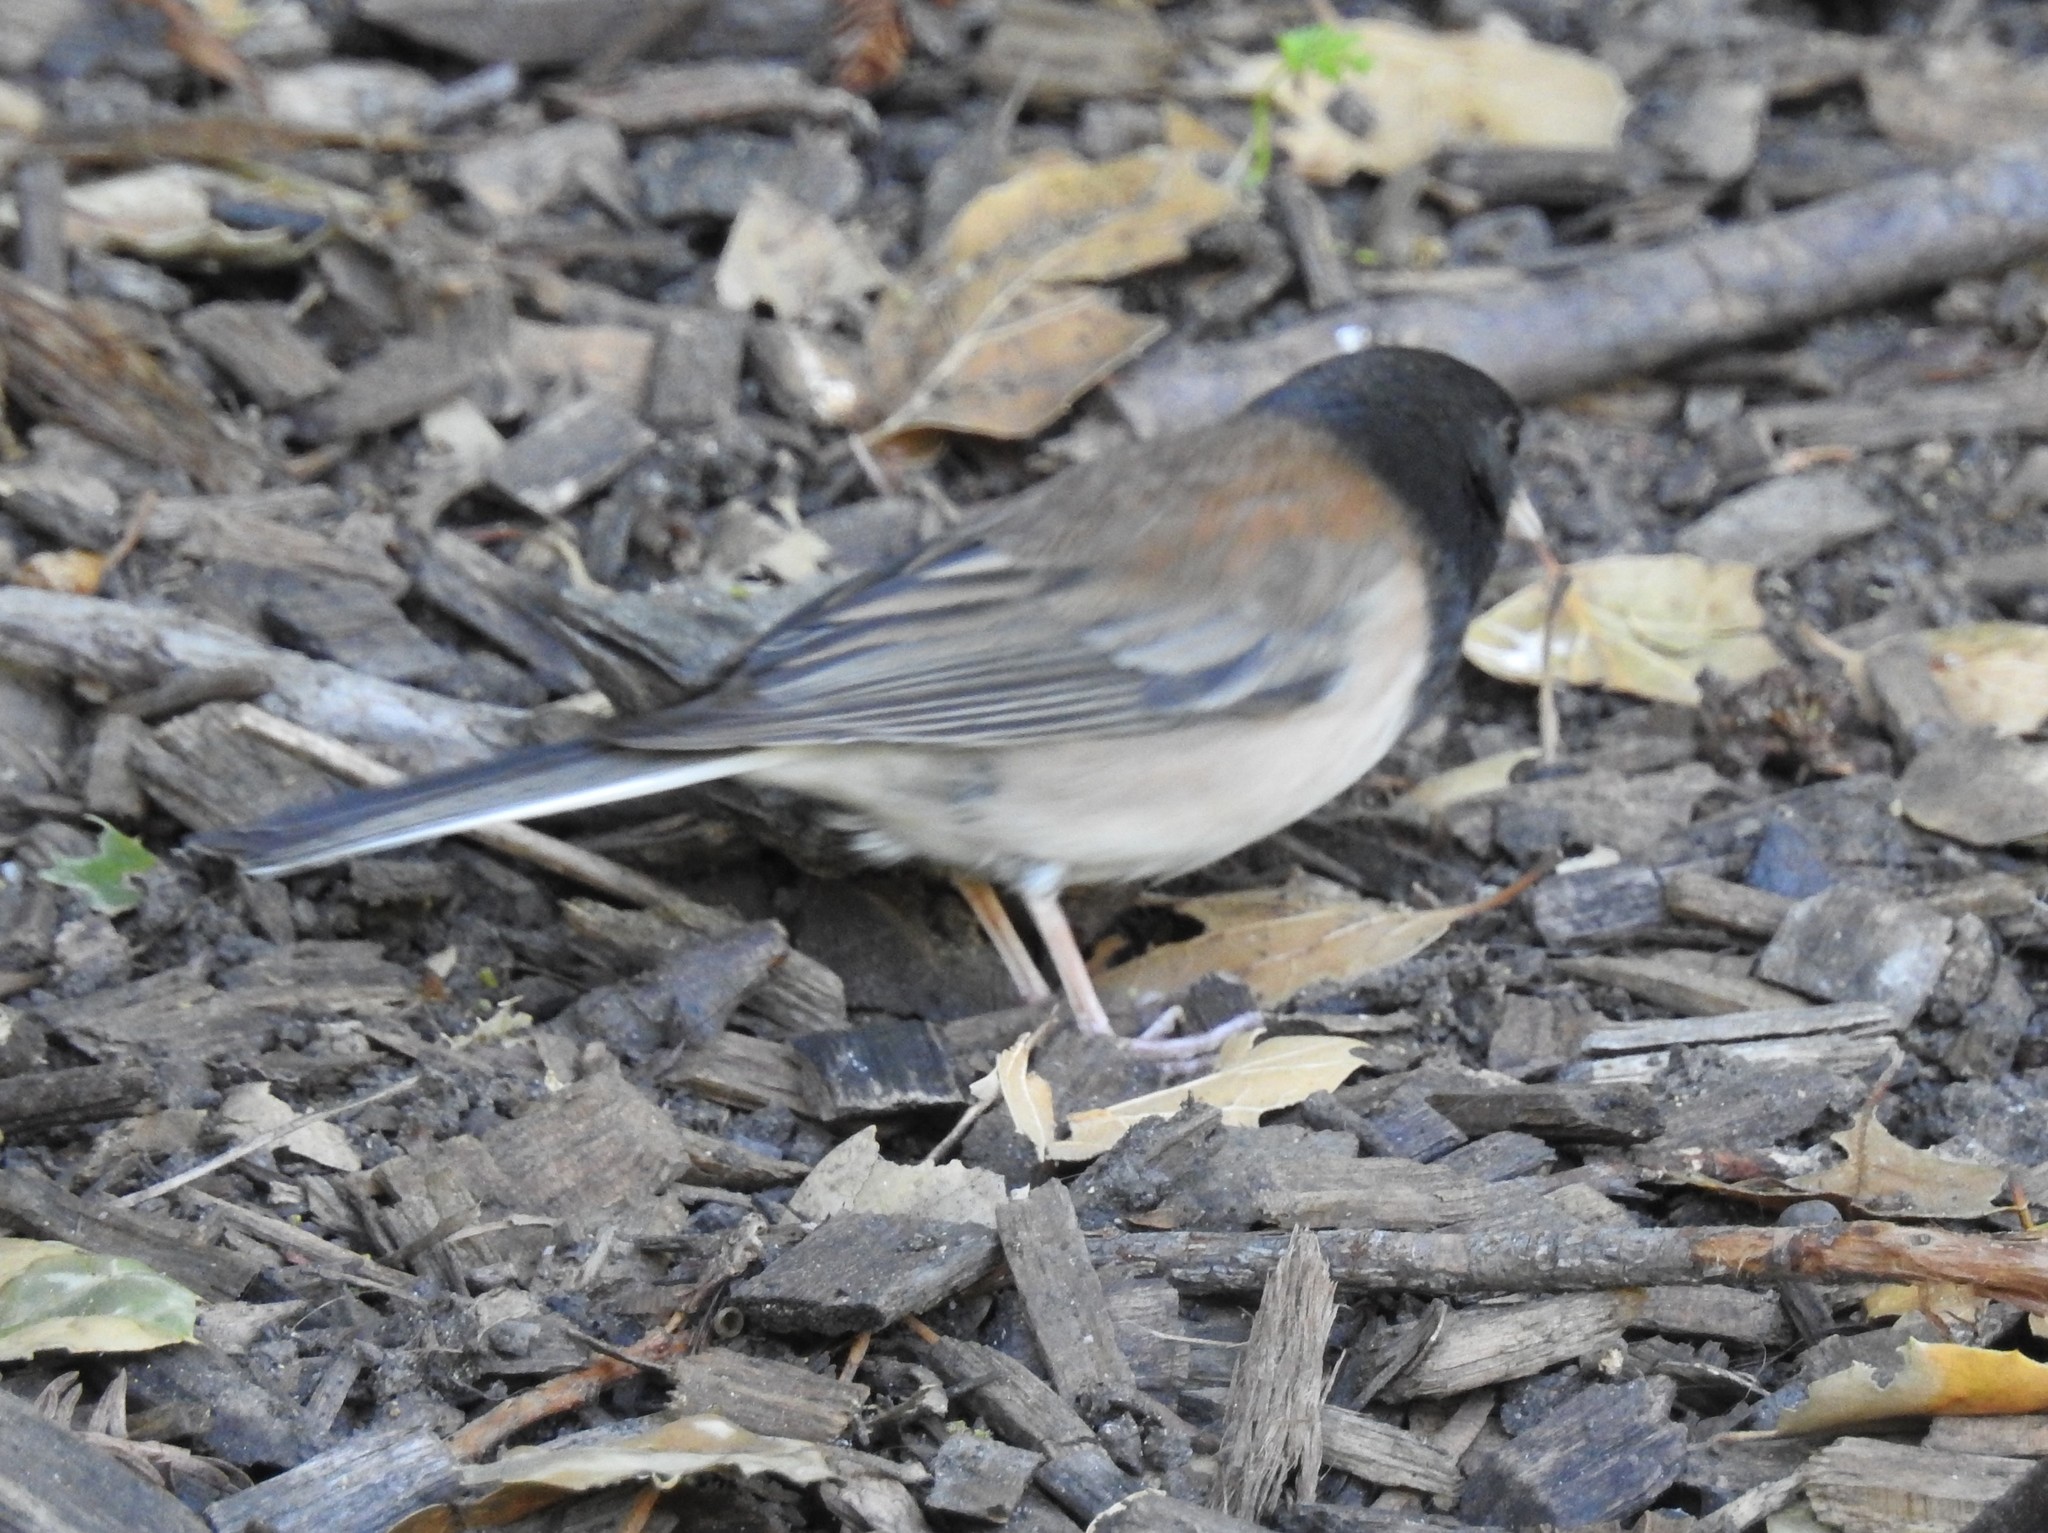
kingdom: Animalia
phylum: Chordata
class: Aves
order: Passeriformes
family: Passerellidae
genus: Junco
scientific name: Junco hyemalis
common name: Dark-eyed junco
